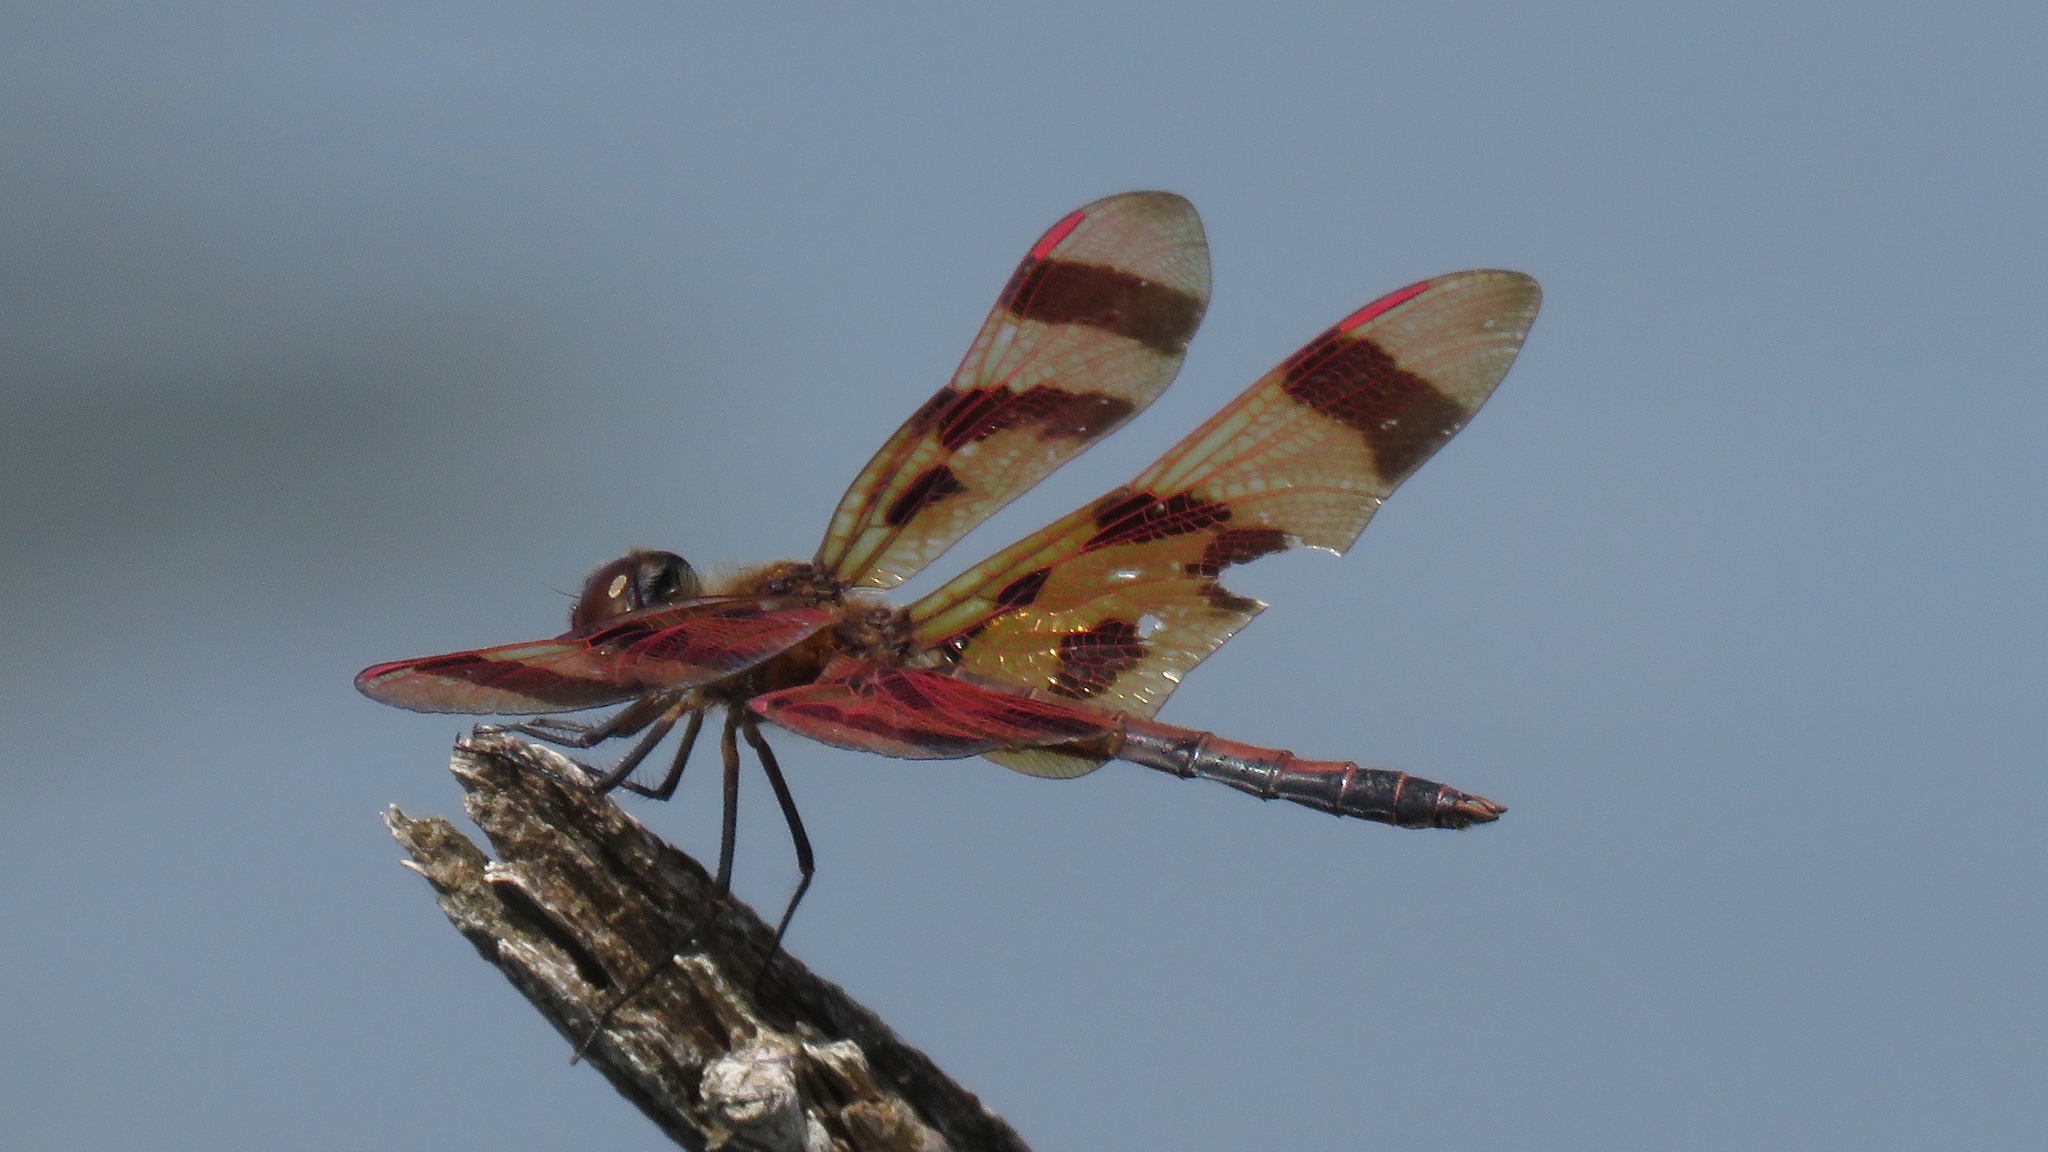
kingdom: Animalia
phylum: Arthropoda
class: Insecta
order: Odonata
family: Libellulidae
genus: Celithemis
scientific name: Celithemis eponina
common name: Halloween pennant
